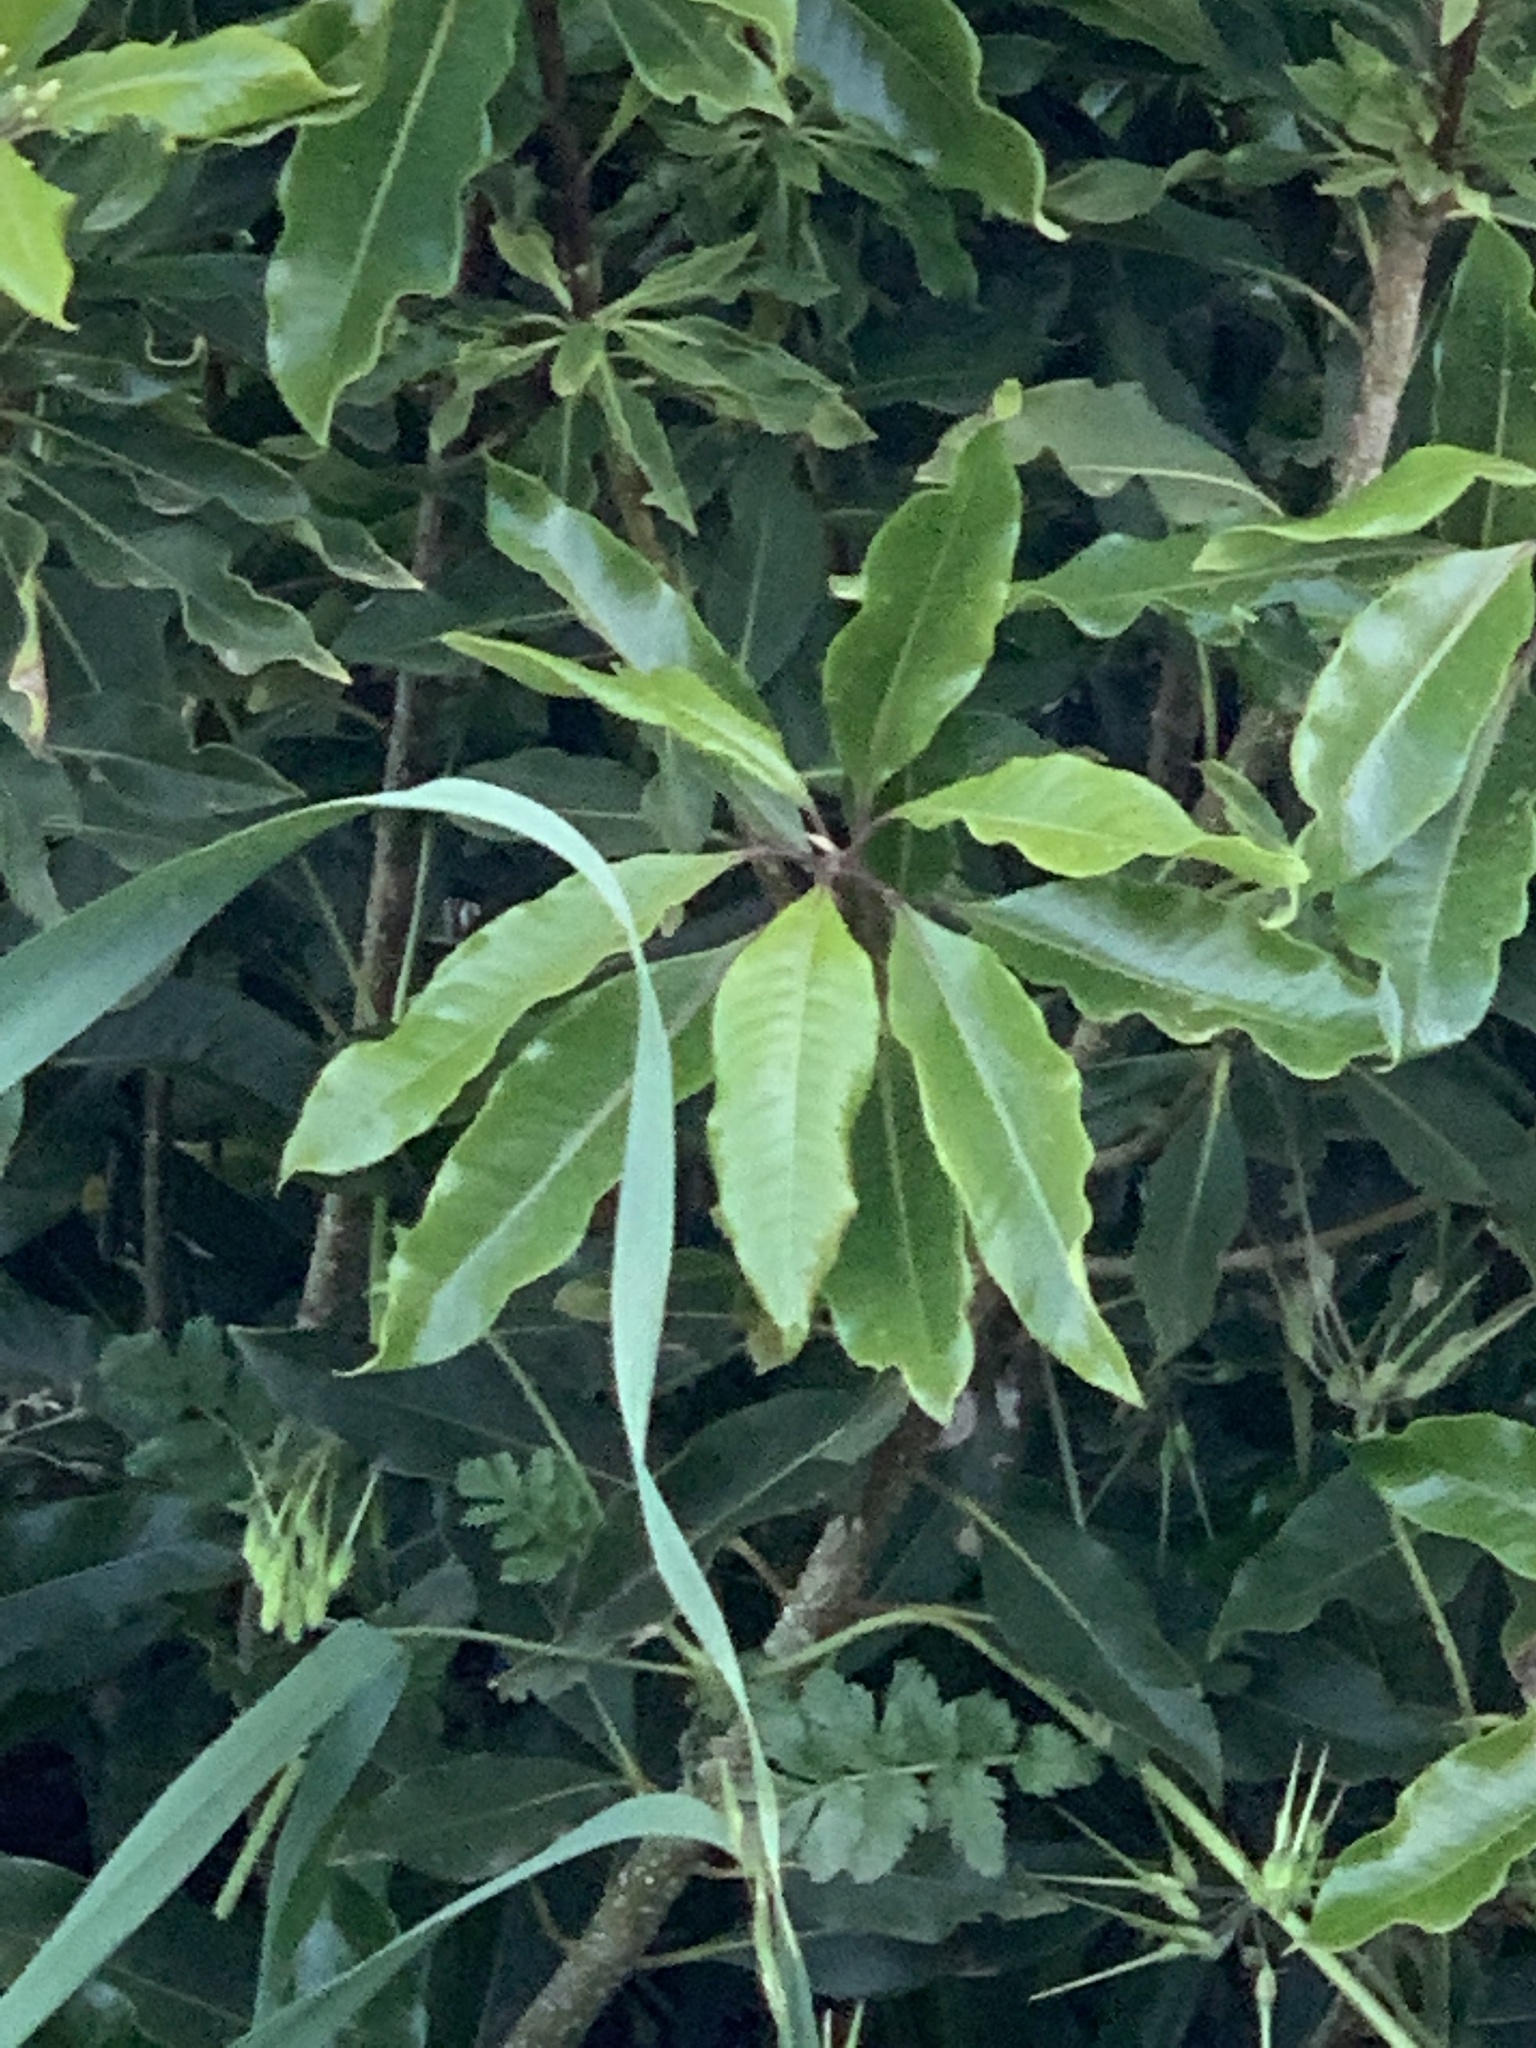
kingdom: Plantae
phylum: Tracheophyta
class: Magnoliopsida
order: Apiales
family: Pittosporaceae
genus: Pittosporum
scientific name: Pittosporum undulatum
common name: Australian cheesewood
